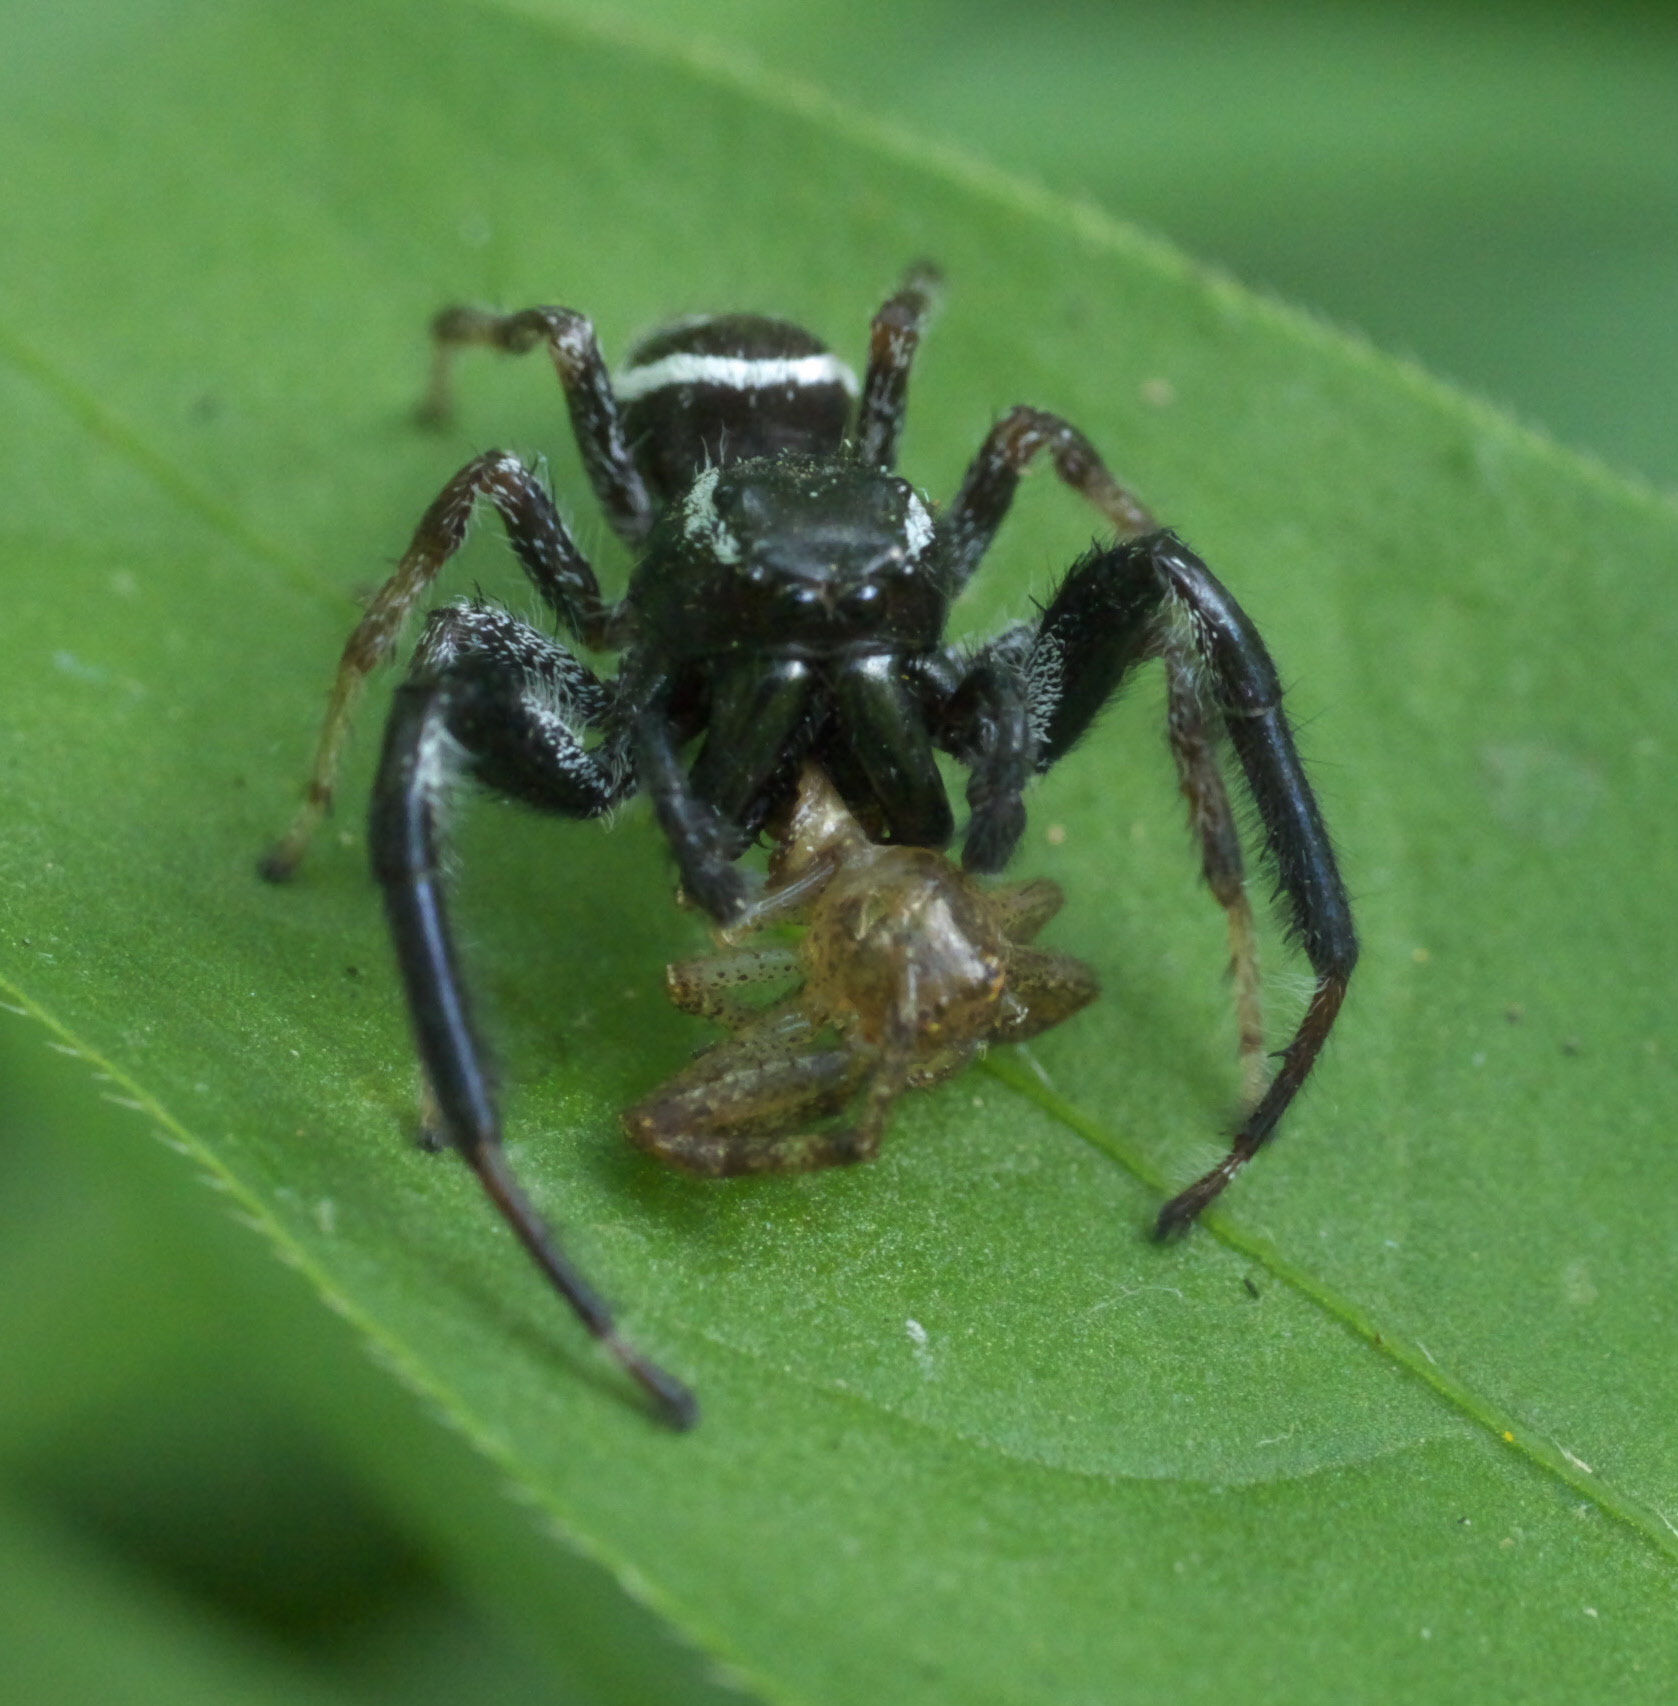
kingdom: Animalia
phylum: Arthropoda
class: Arachnida
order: Araneae
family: Salticidae
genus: Paraphidippus
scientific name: Paraphidippus aurantius
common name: Jumping spiders
